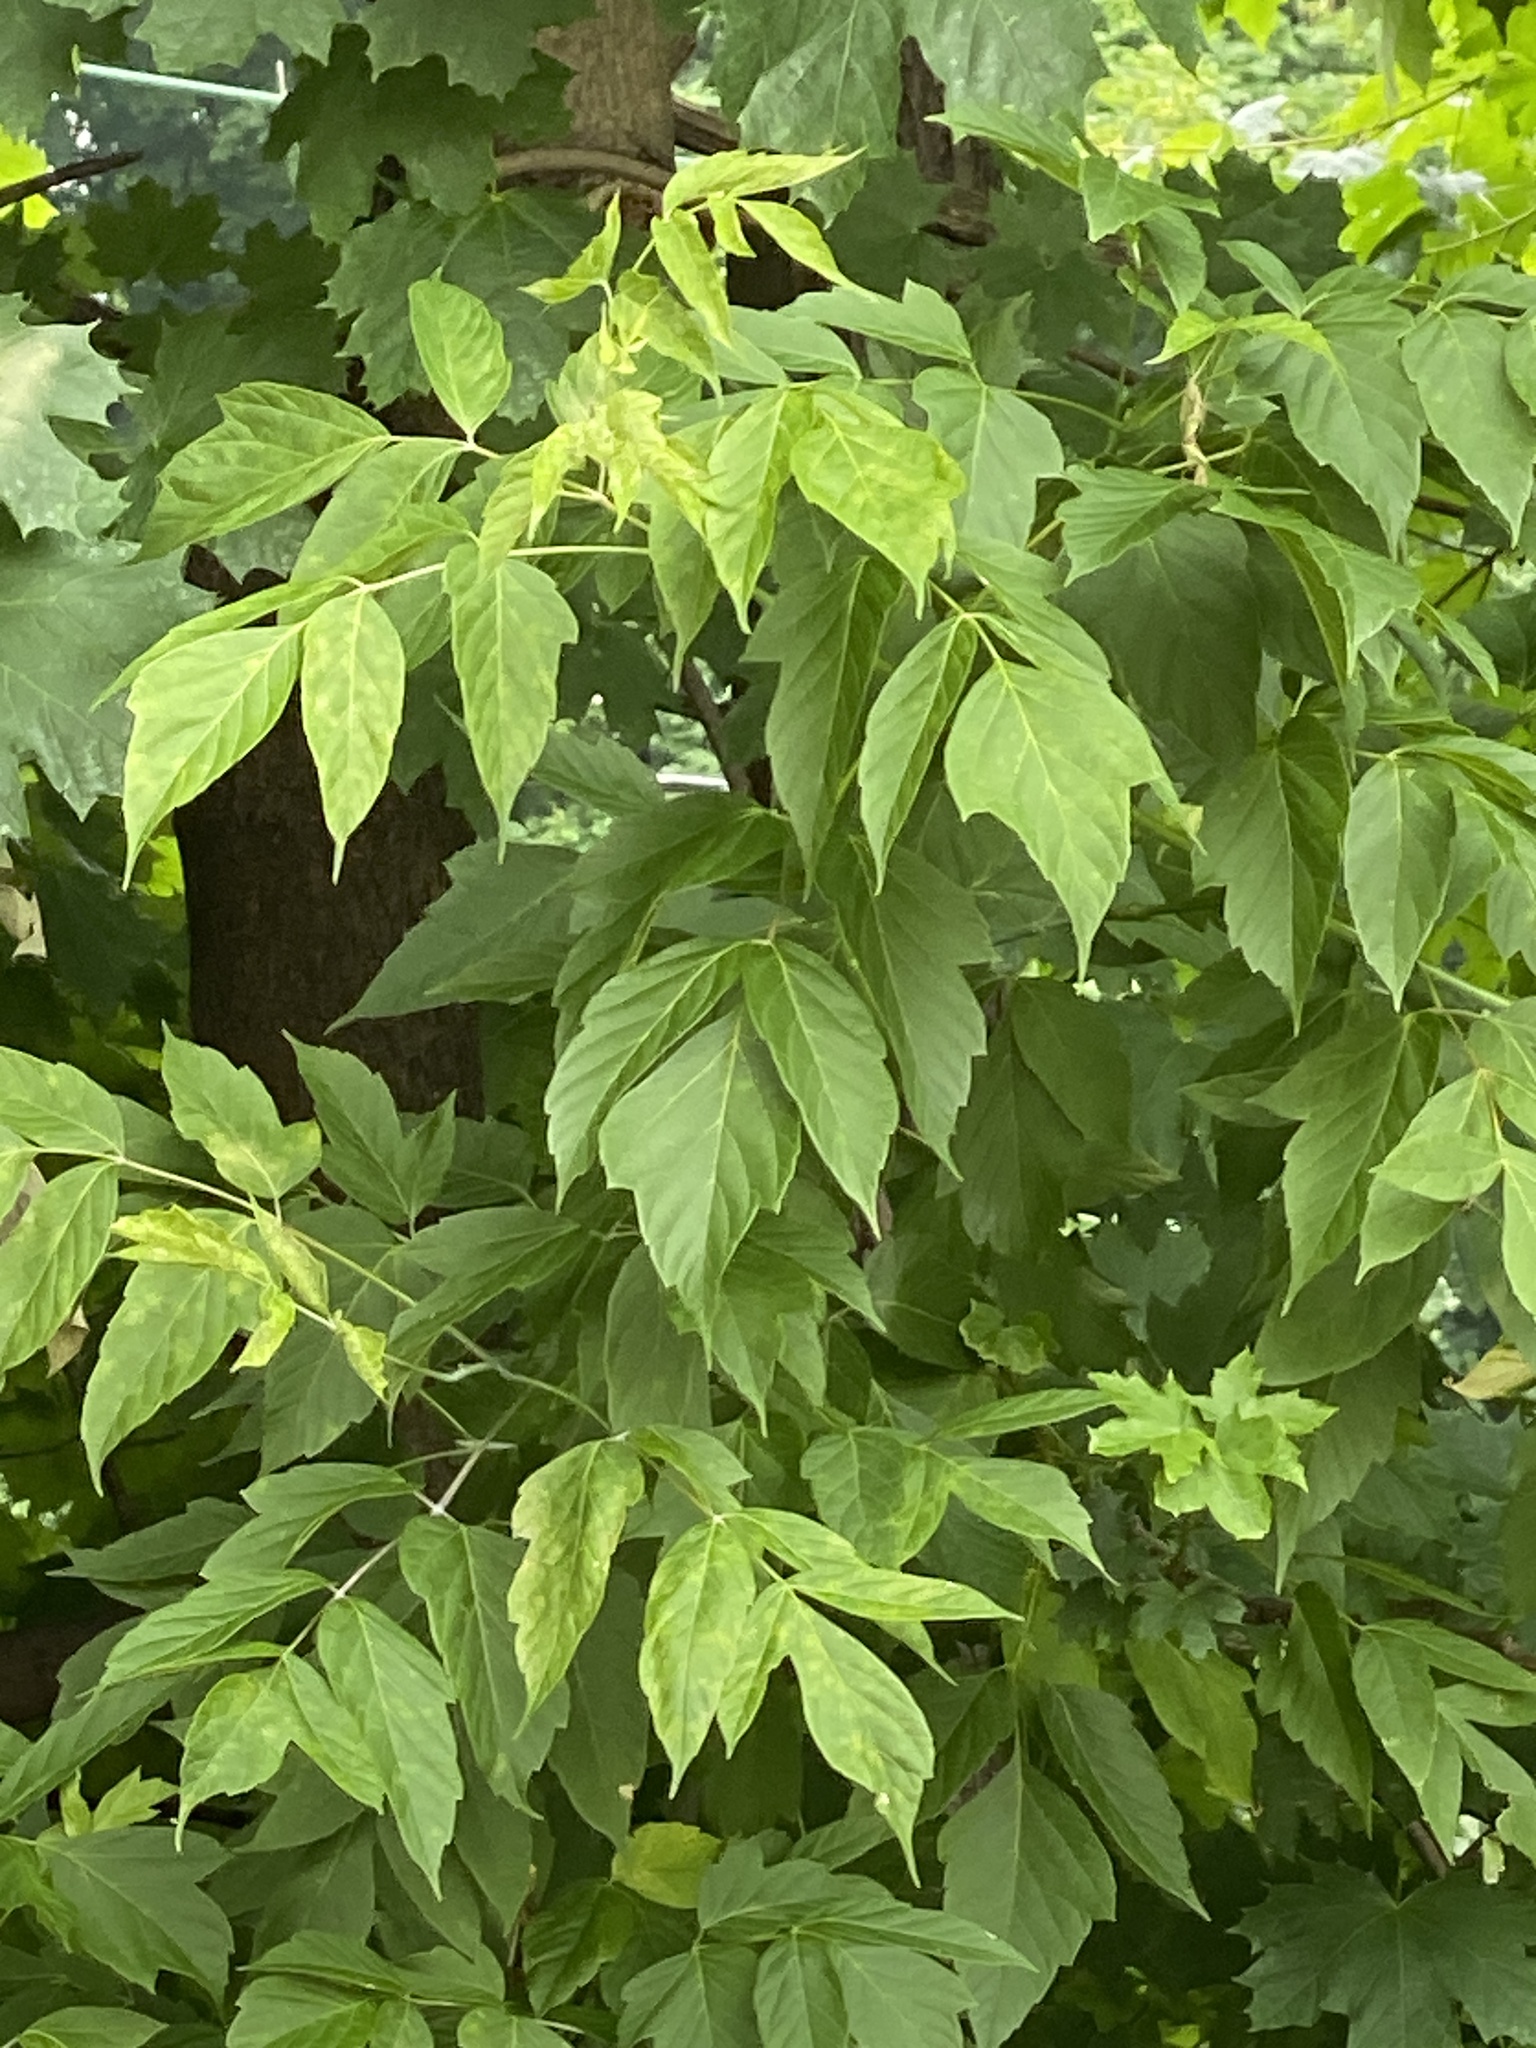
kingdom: Plantae
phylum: Tracheophyta
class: Magnoliopsida
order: Sapindales
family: Sapindaceae
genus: Acer
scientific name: Acer negundo
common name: Ashleaf maple
